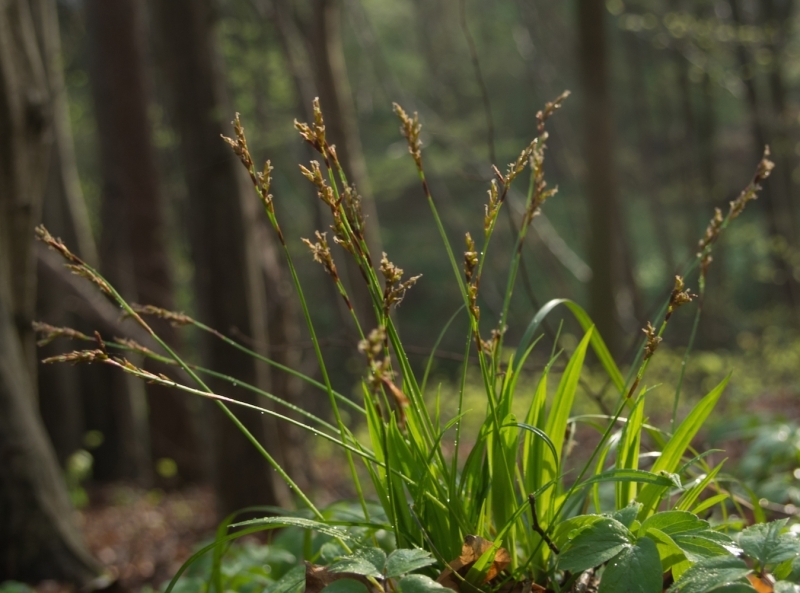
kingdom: Plantae
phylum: Tracheophyta
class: Liliopsida
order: Poales
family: Cyperaceae
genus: Carex
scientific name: Carex digitata
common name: Fingered sedge
